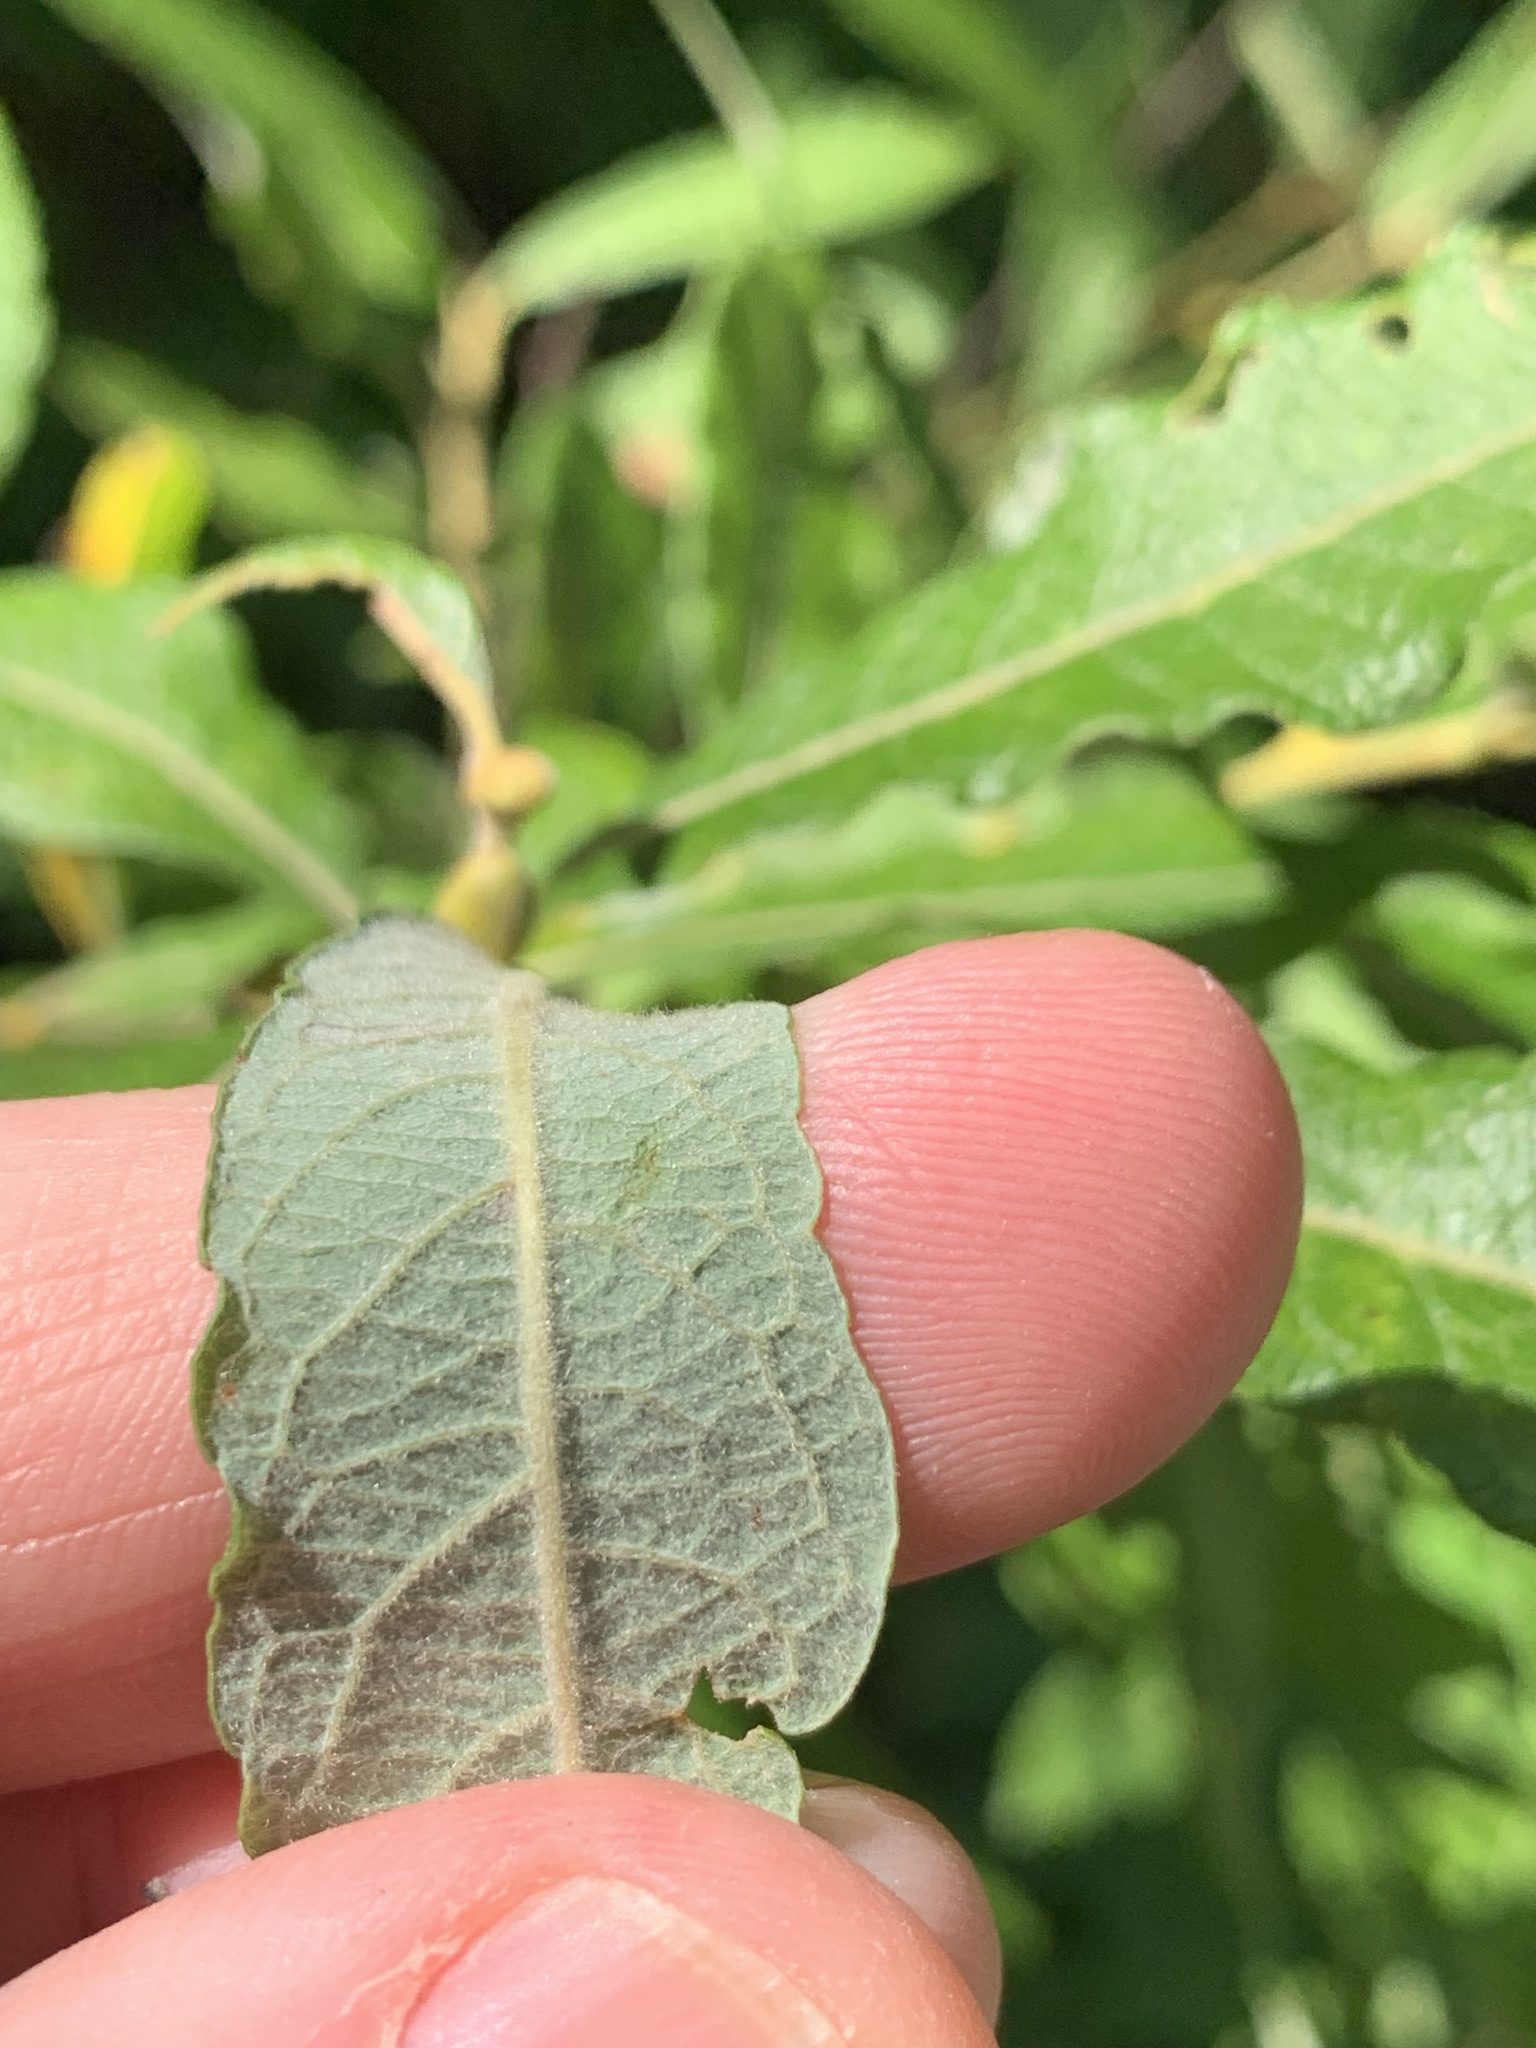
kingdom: Plantae
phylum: Tracheophyta
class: Magnoliopsida
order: Malpighiales
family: Salicaceae
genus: Salix
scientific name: Salix humilis
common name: Prairie willow
